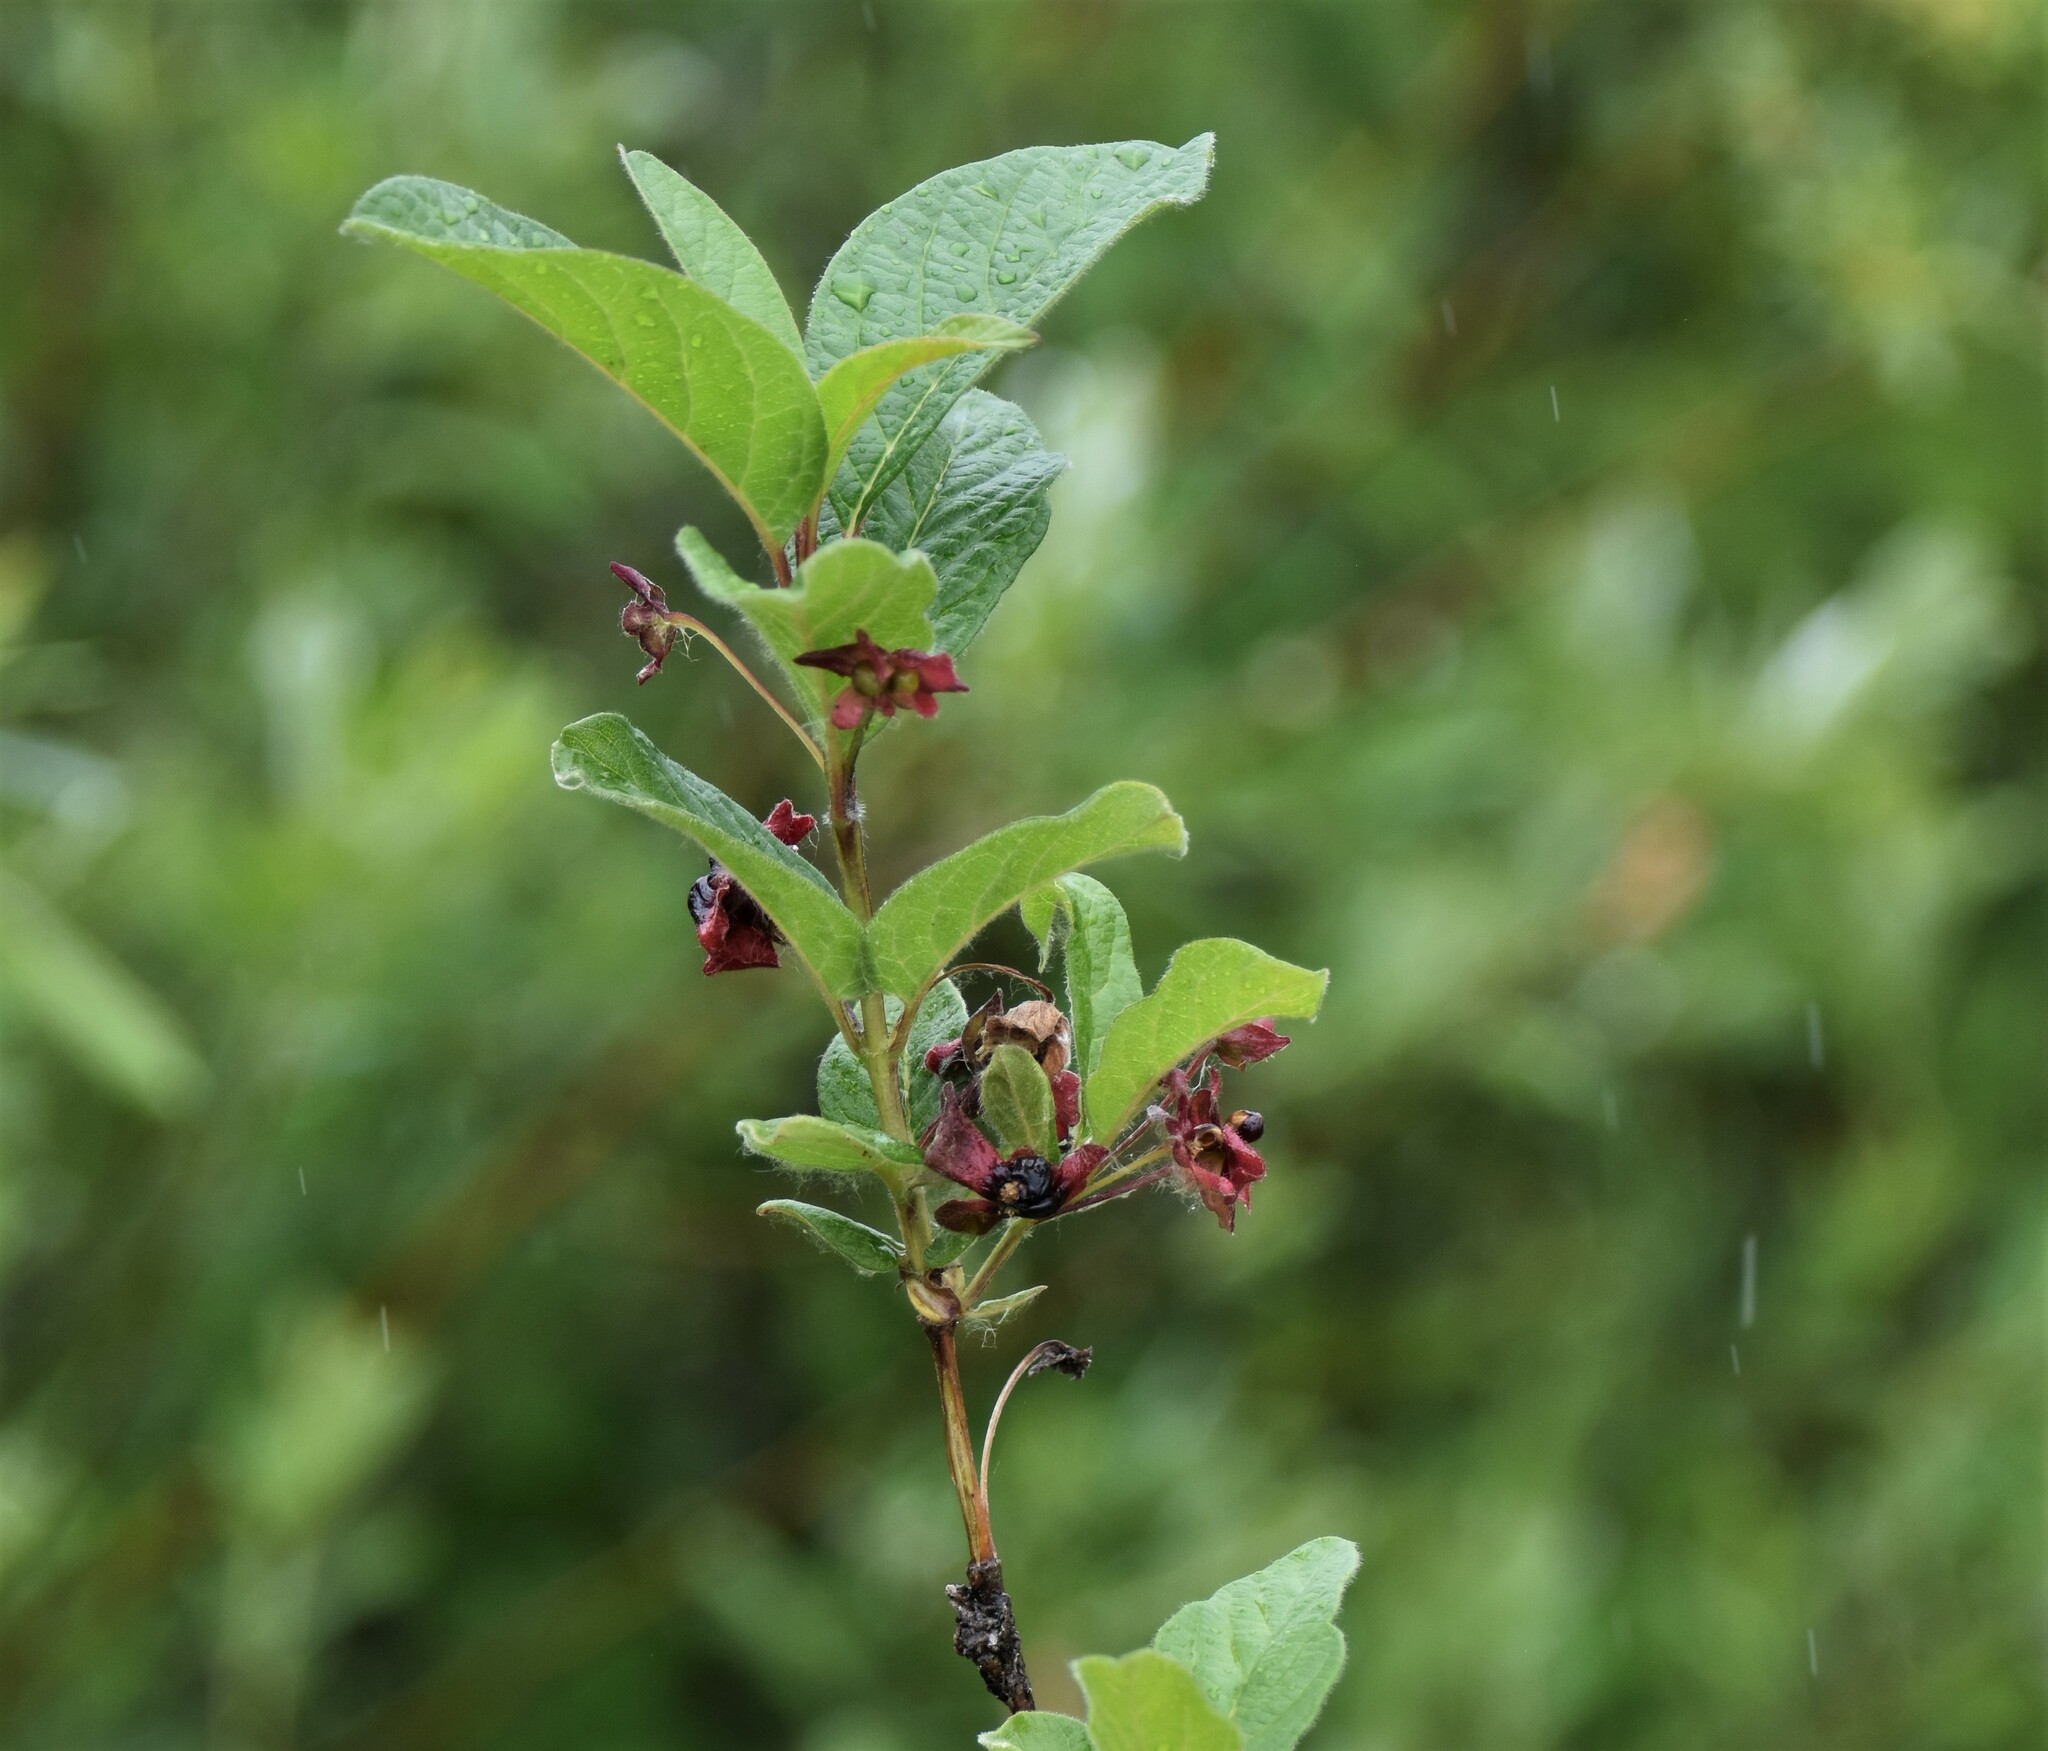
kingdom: Plantae
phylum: Tracheophyta
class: Magnoliopsida
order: Dipsacales
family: Caprifoliaceae
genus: Lonicera
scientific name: Lonicera involucrata
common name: Californian honeysuckle
